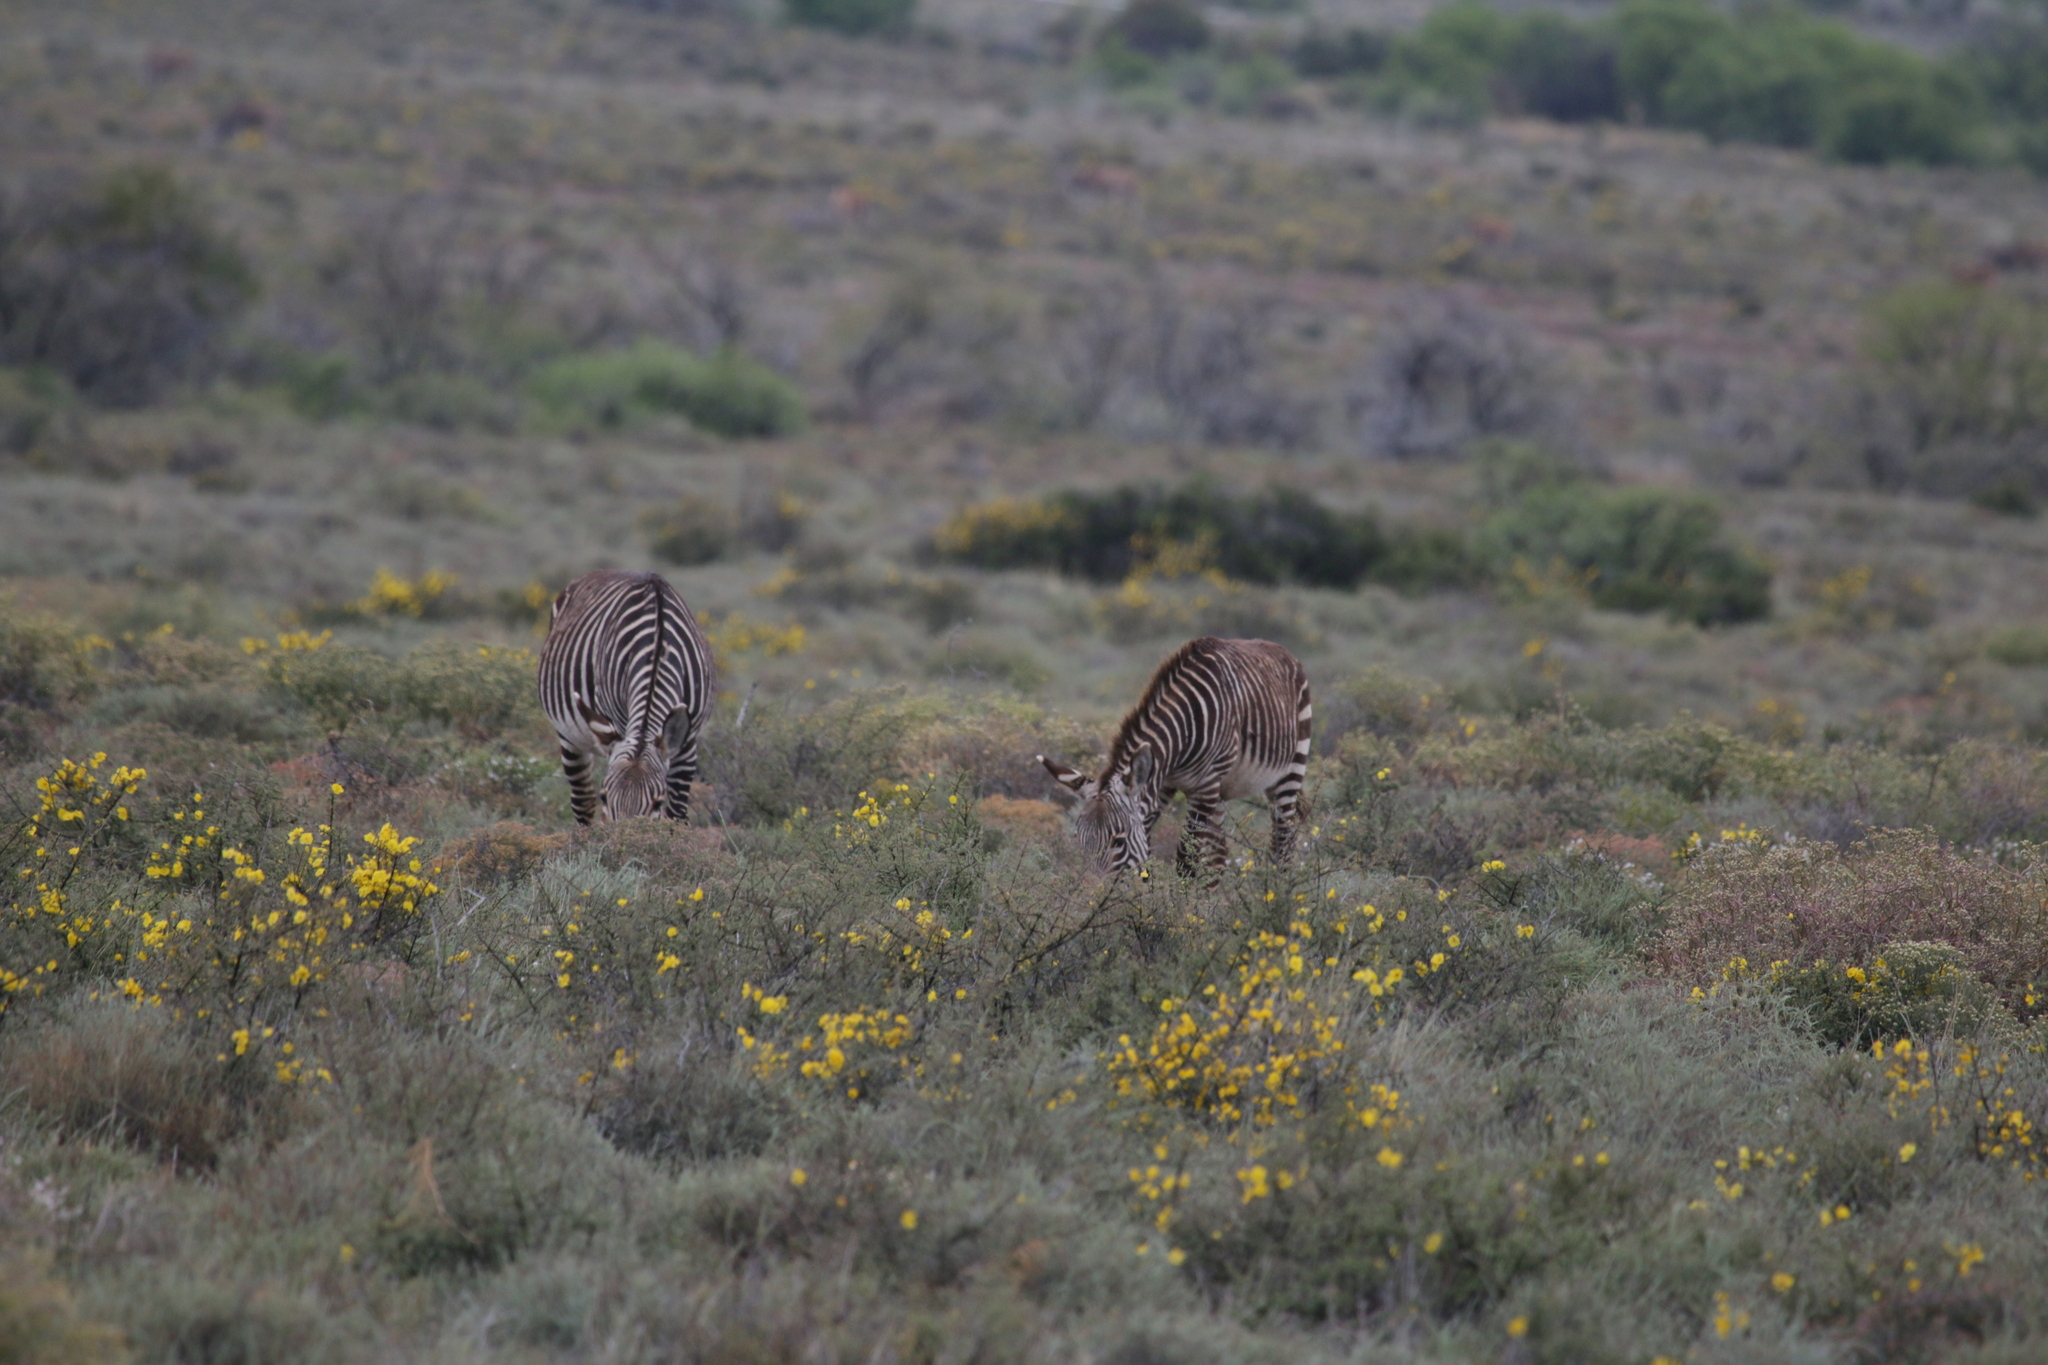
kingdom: Animalia
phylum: Chordata
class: Mammalia
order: Perissodactyla
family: Equidae
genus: Equus
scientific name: Equus zebra
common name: Mountain zebra
